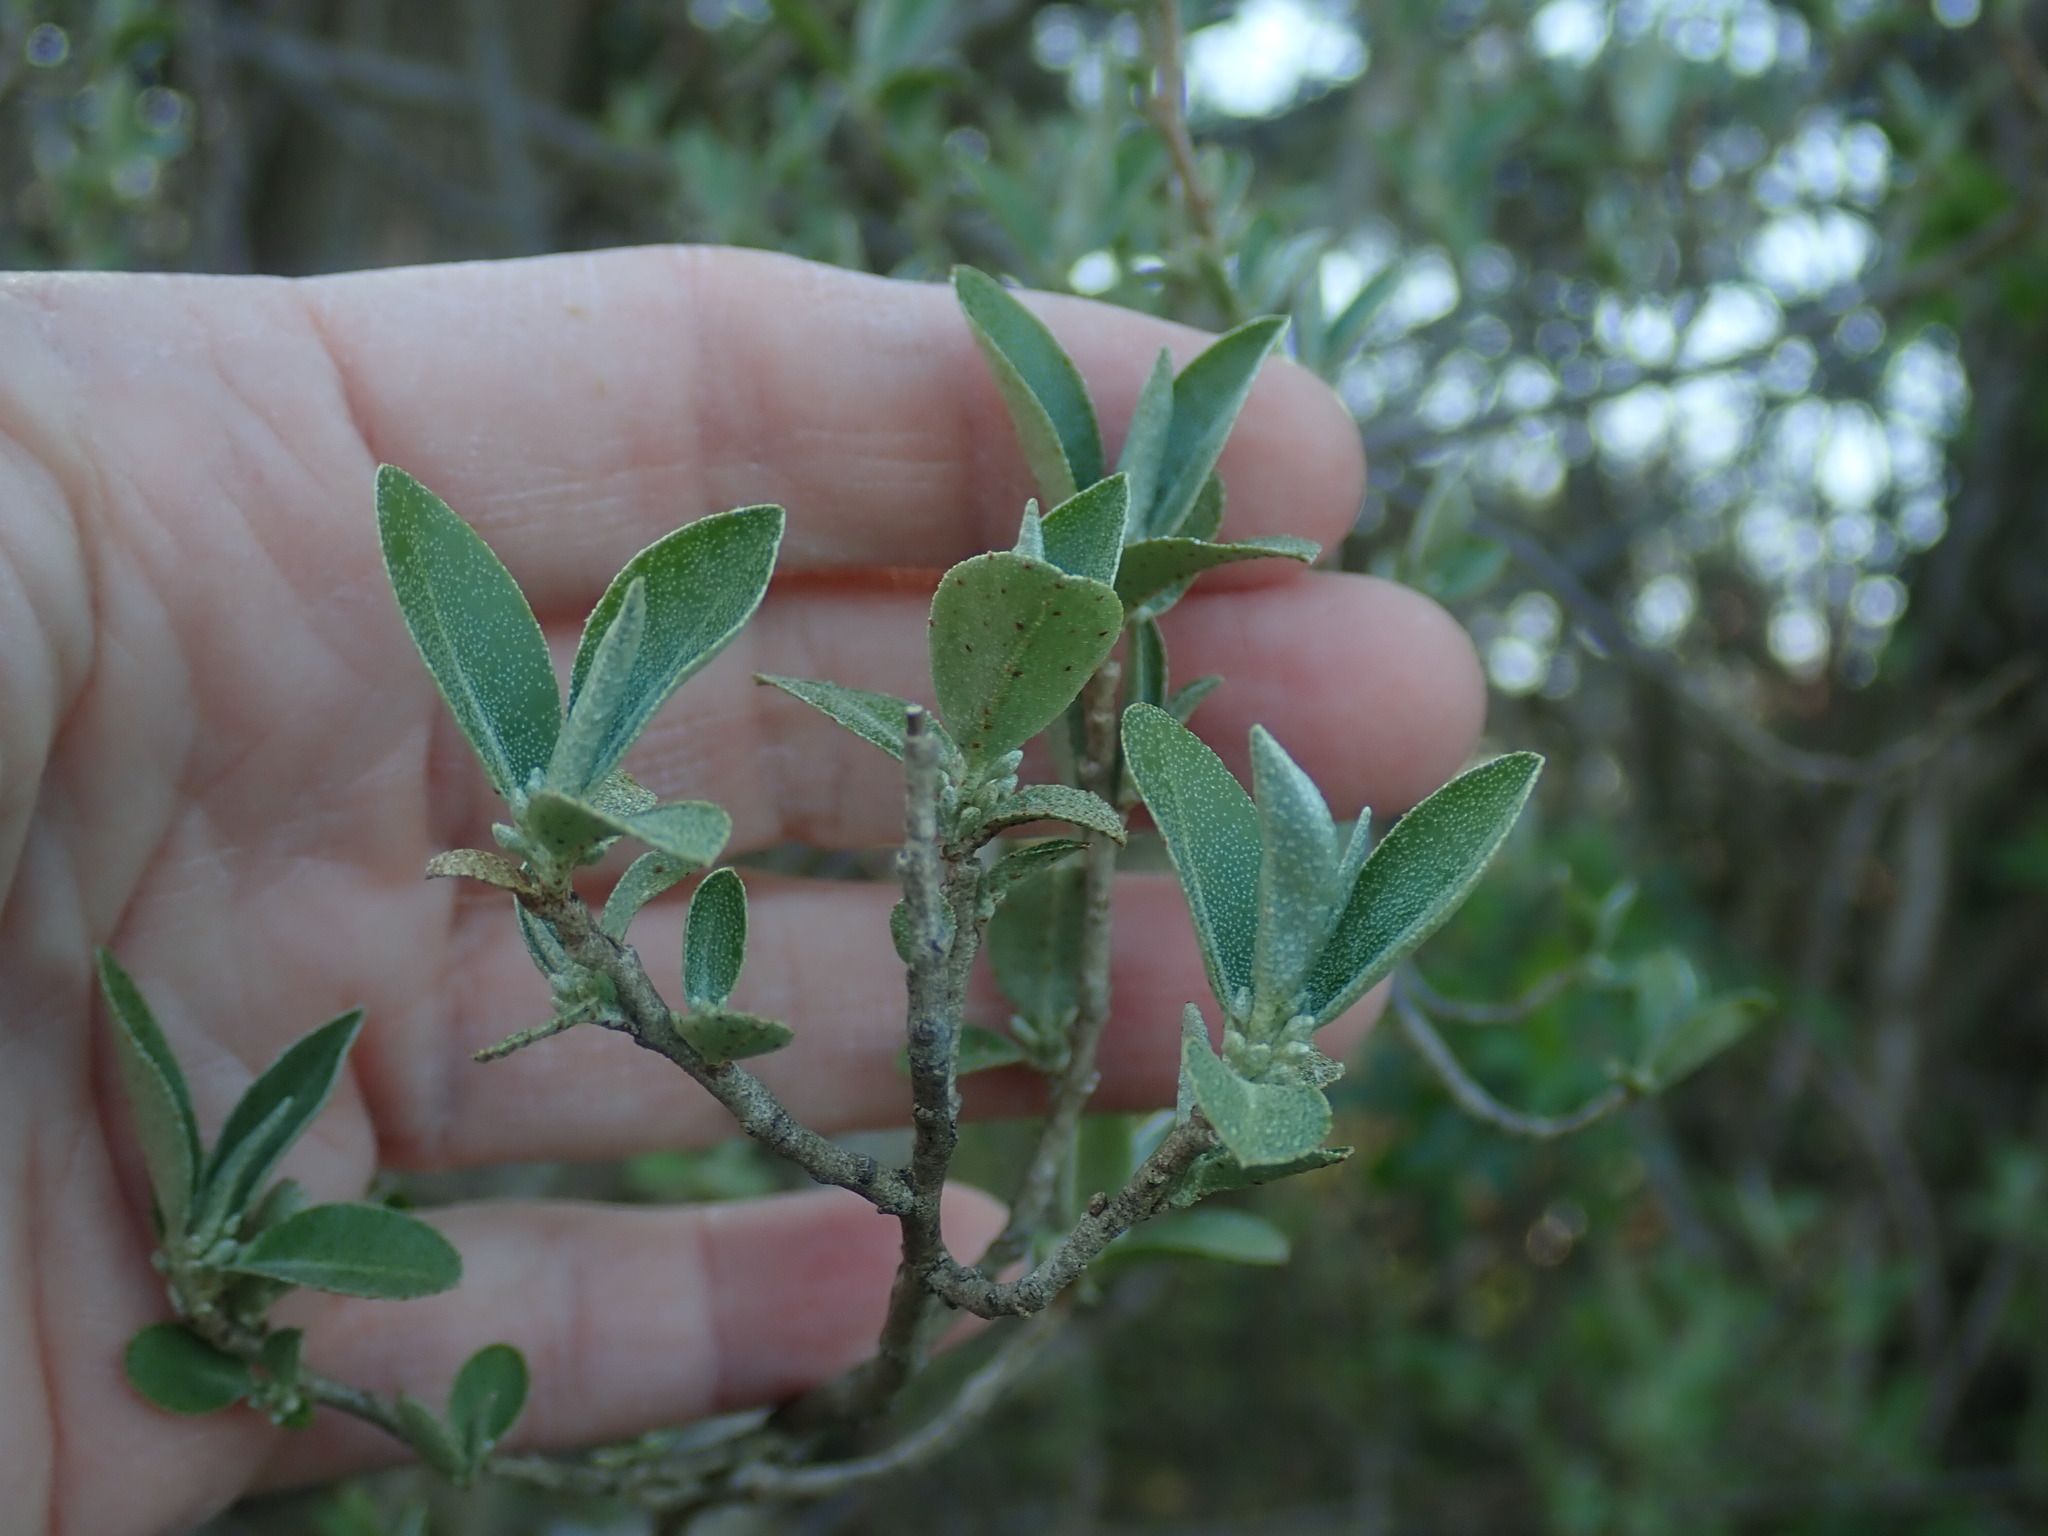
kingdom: Plantae
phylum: Tracheophyta
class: Magnoliopsida
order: Rosales
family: Elaeagnaceae
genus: Elaeagnus
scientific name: Elaeagnus umbellata
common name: Autumn olive
